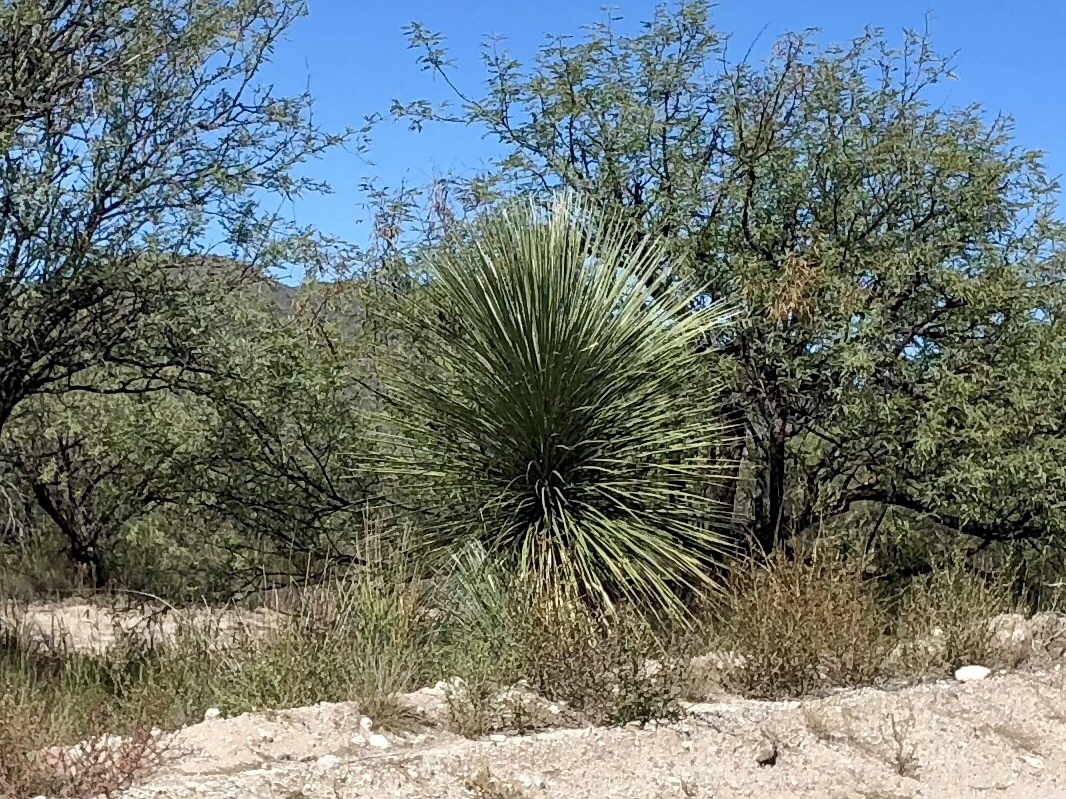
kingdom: Plantae
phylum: Tracheophyta
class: Liliopsida
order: Asparagales
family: Asparagaceae
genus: Yucca
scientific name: Yucca elata
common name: Palmella
